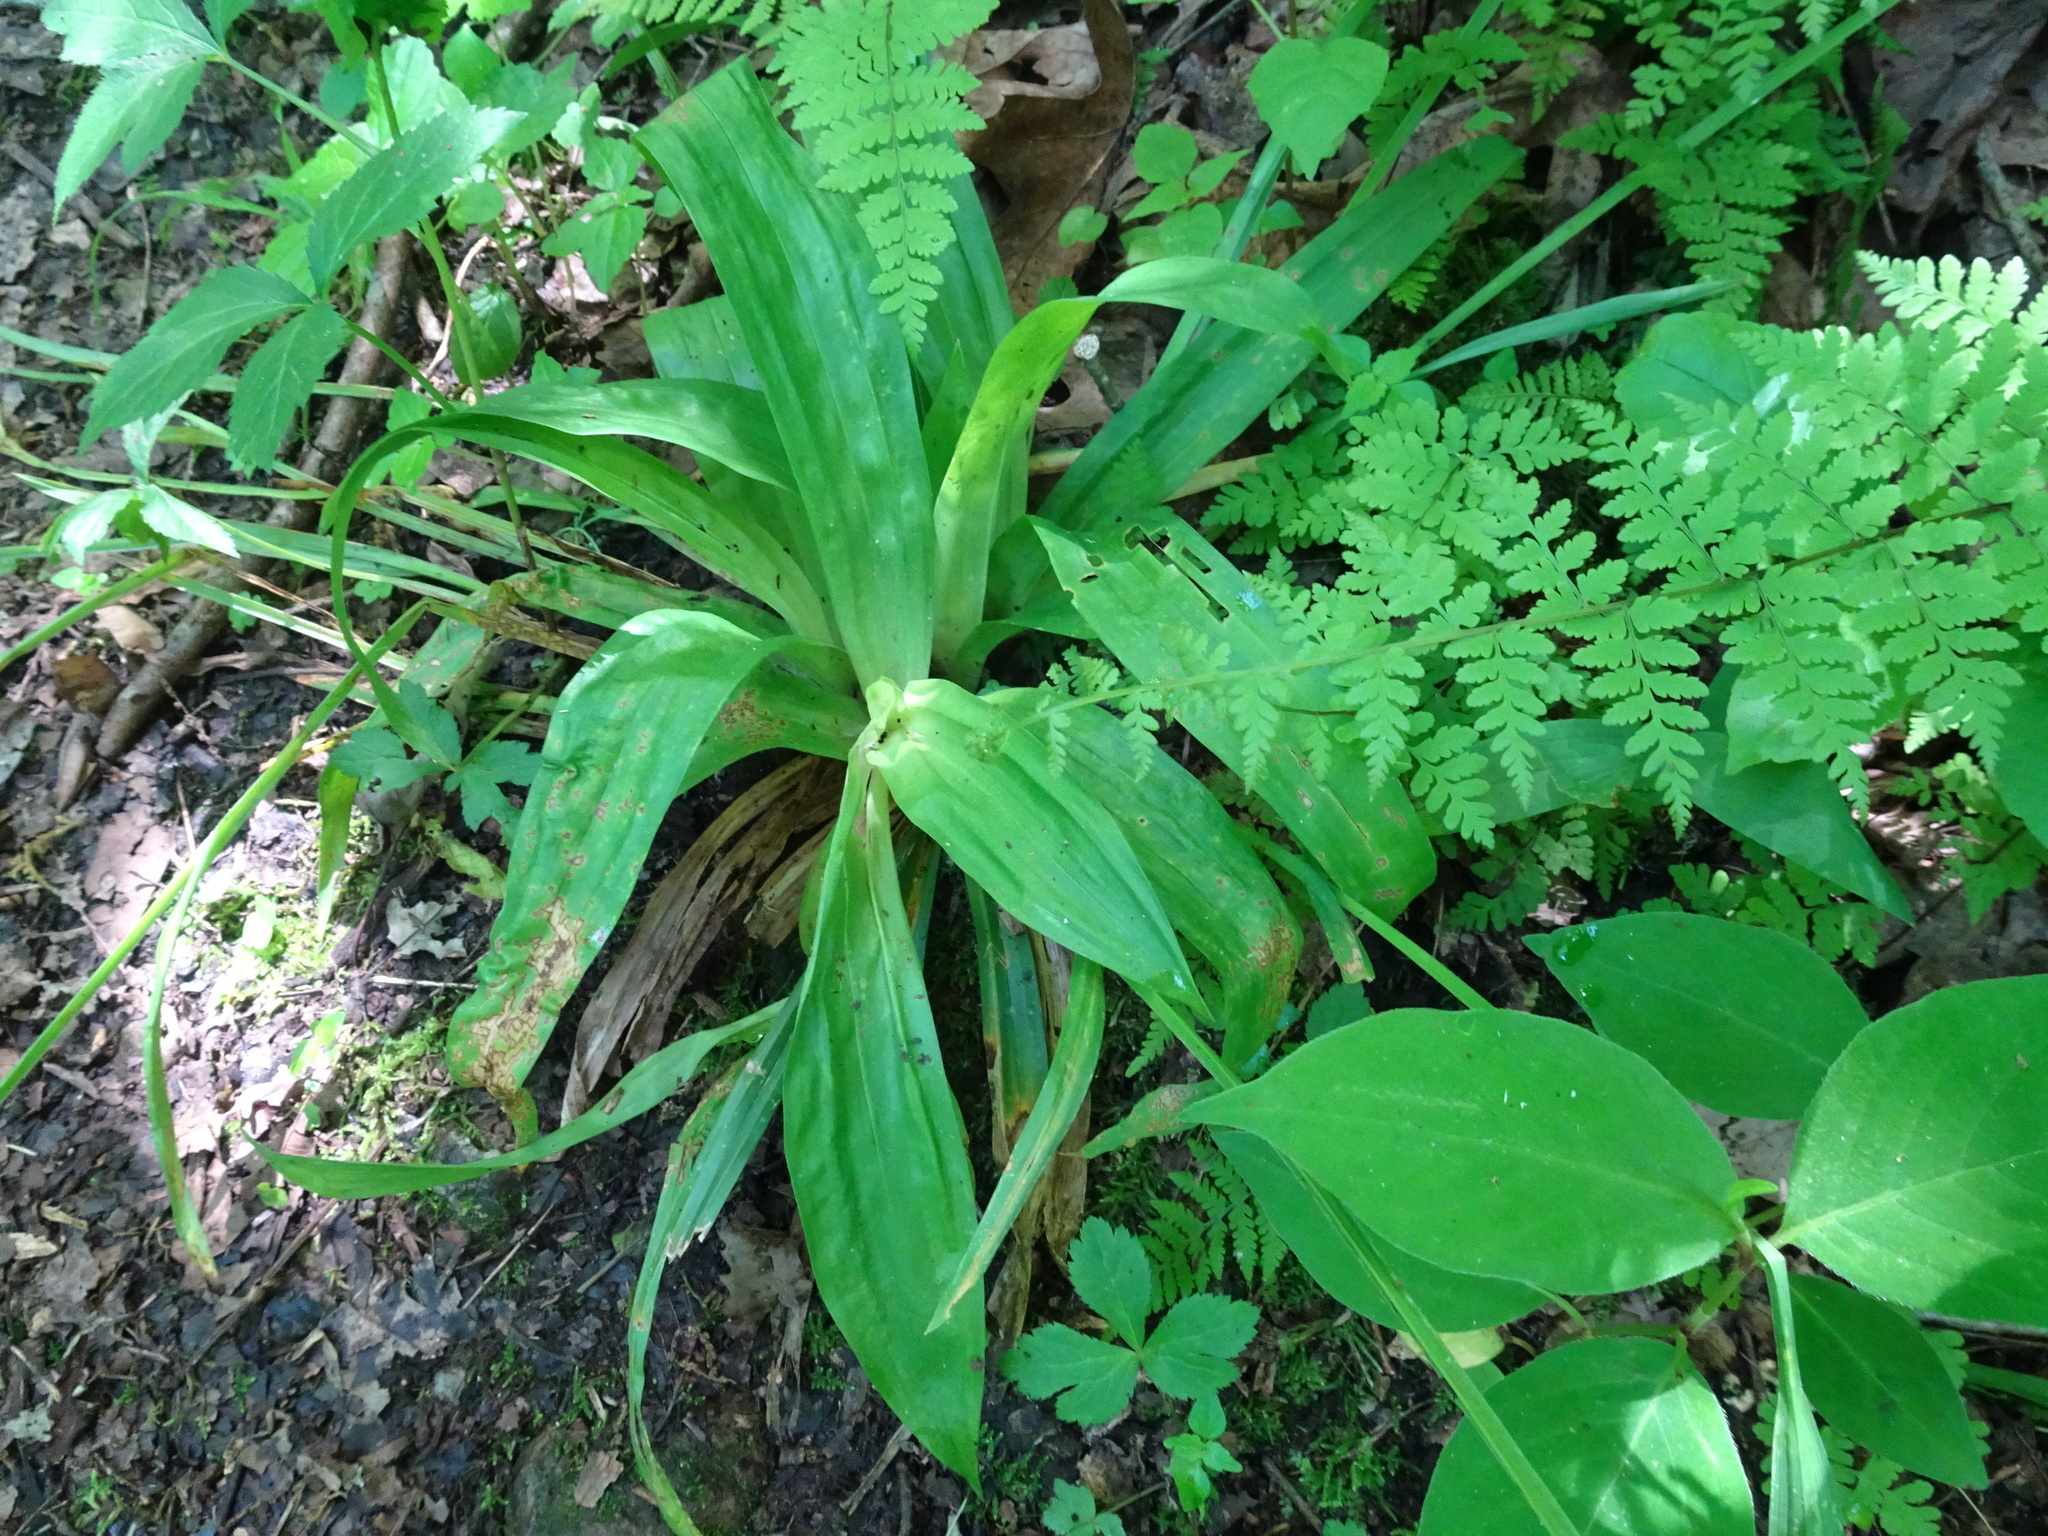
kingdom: Plantae
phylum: Tracheophyta
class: Liliopsida
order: Poales
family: Cyperaceae
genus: Carex
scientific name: Carex albursina
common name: Blunt-scale wood sedge
